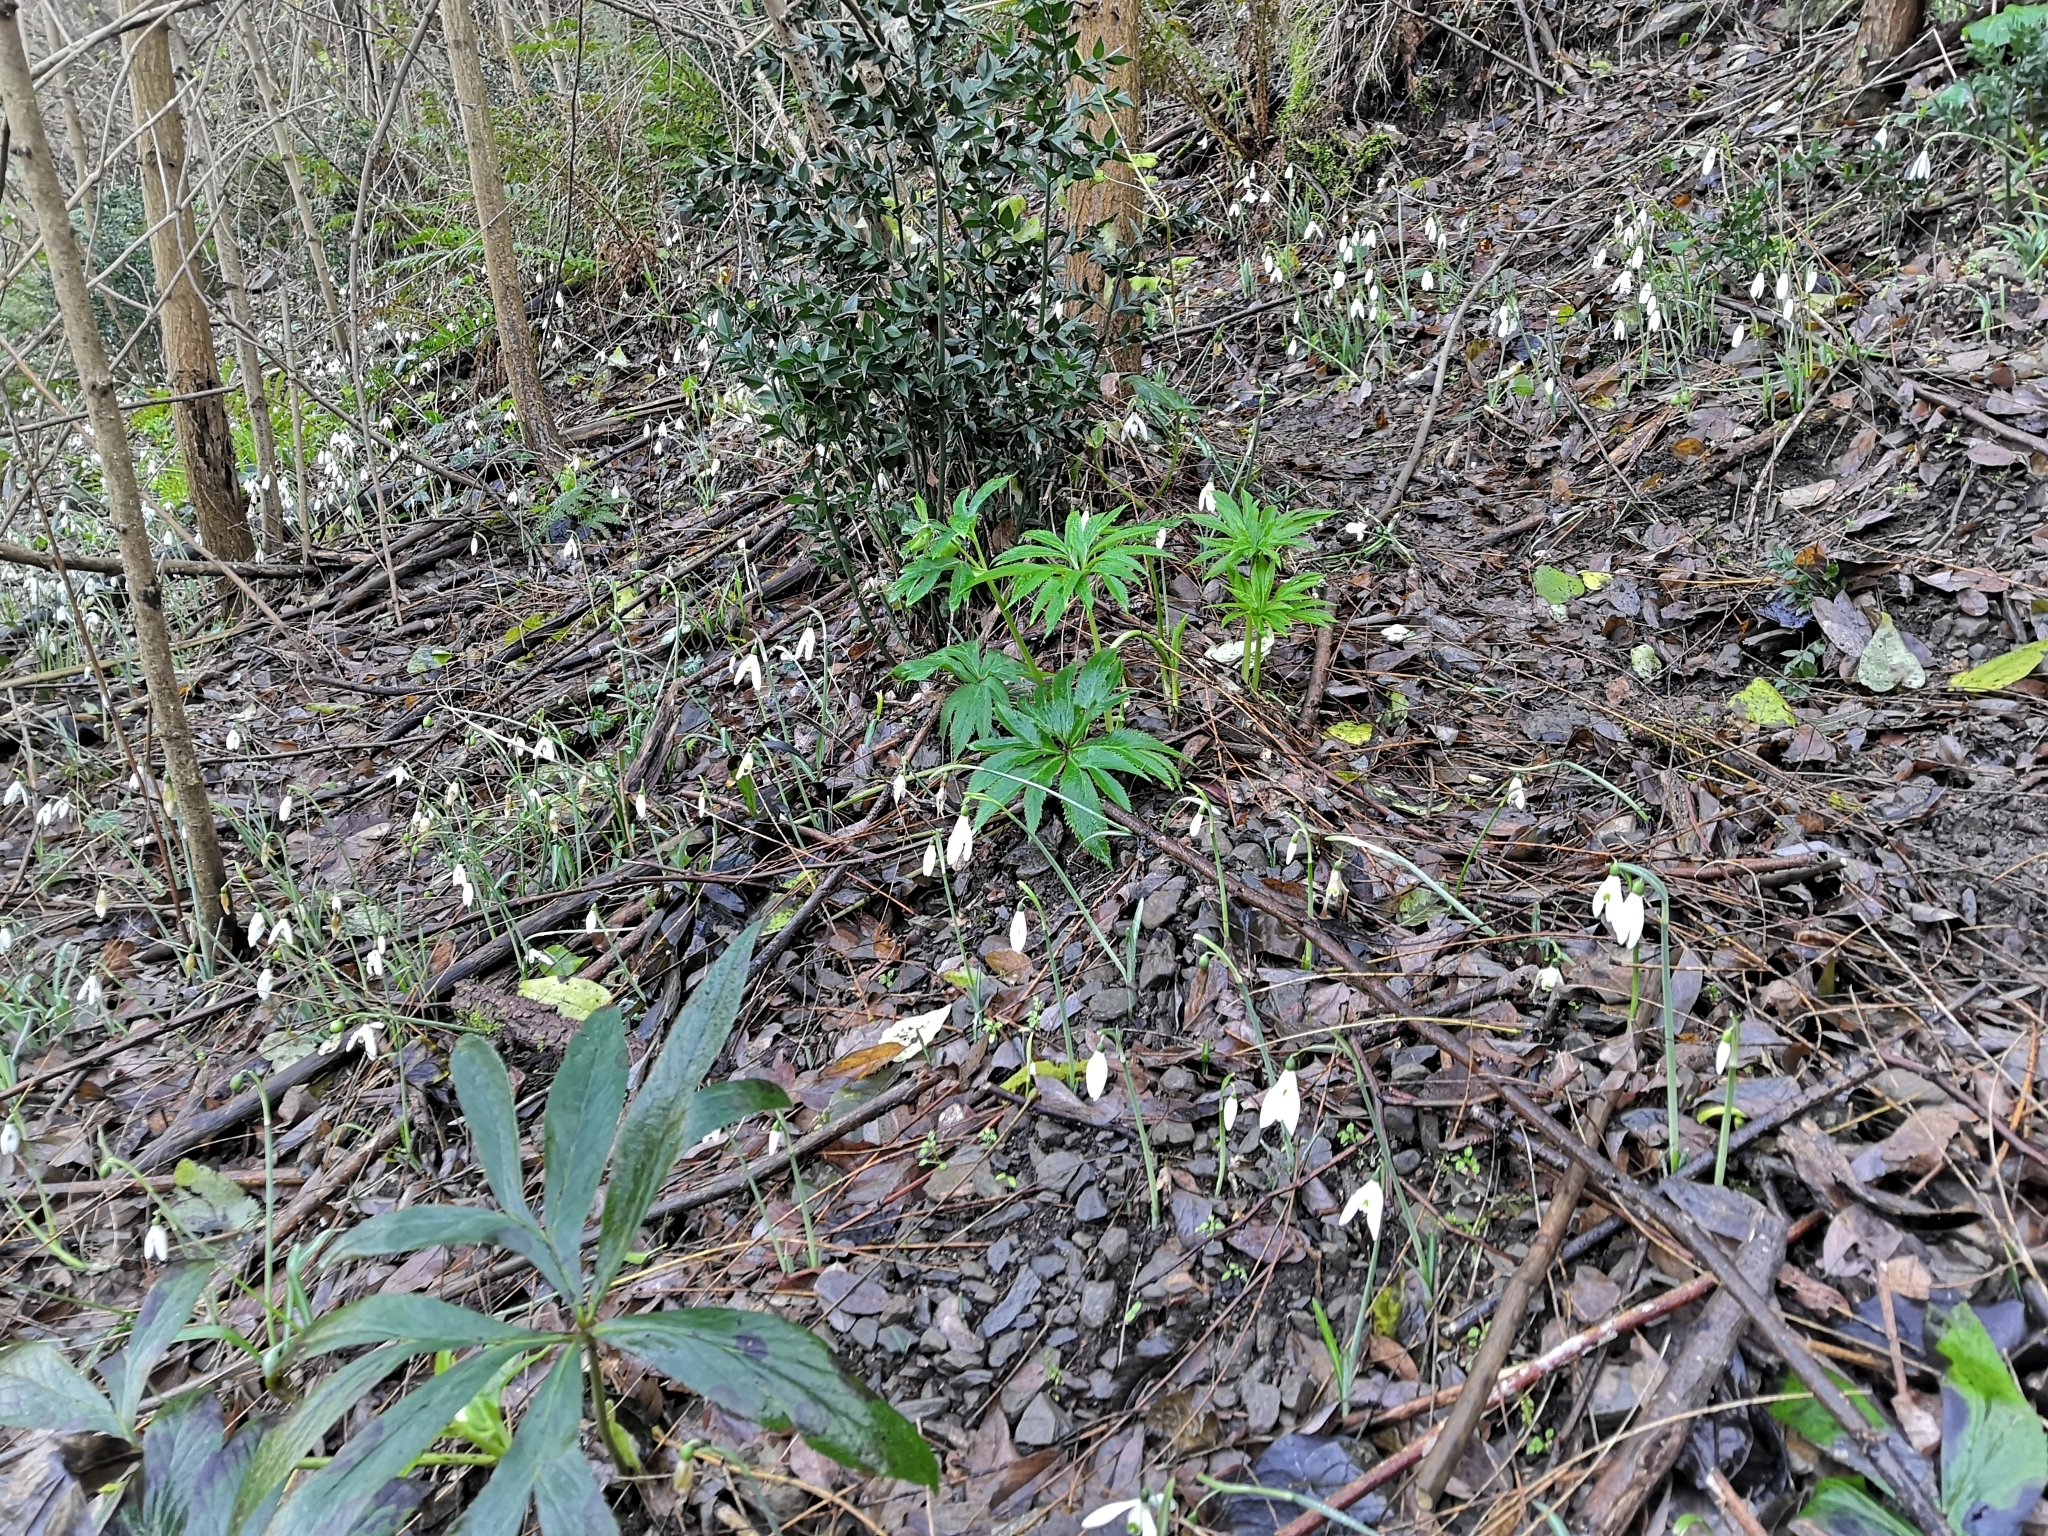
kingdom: Plantae
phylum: Tracheophyta
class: Liliopsida
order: Asparagales
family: Amaryllidaceae
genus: Galanthus
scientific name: Galanthus reginae-olgae
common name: Queen olga's snowdrop
